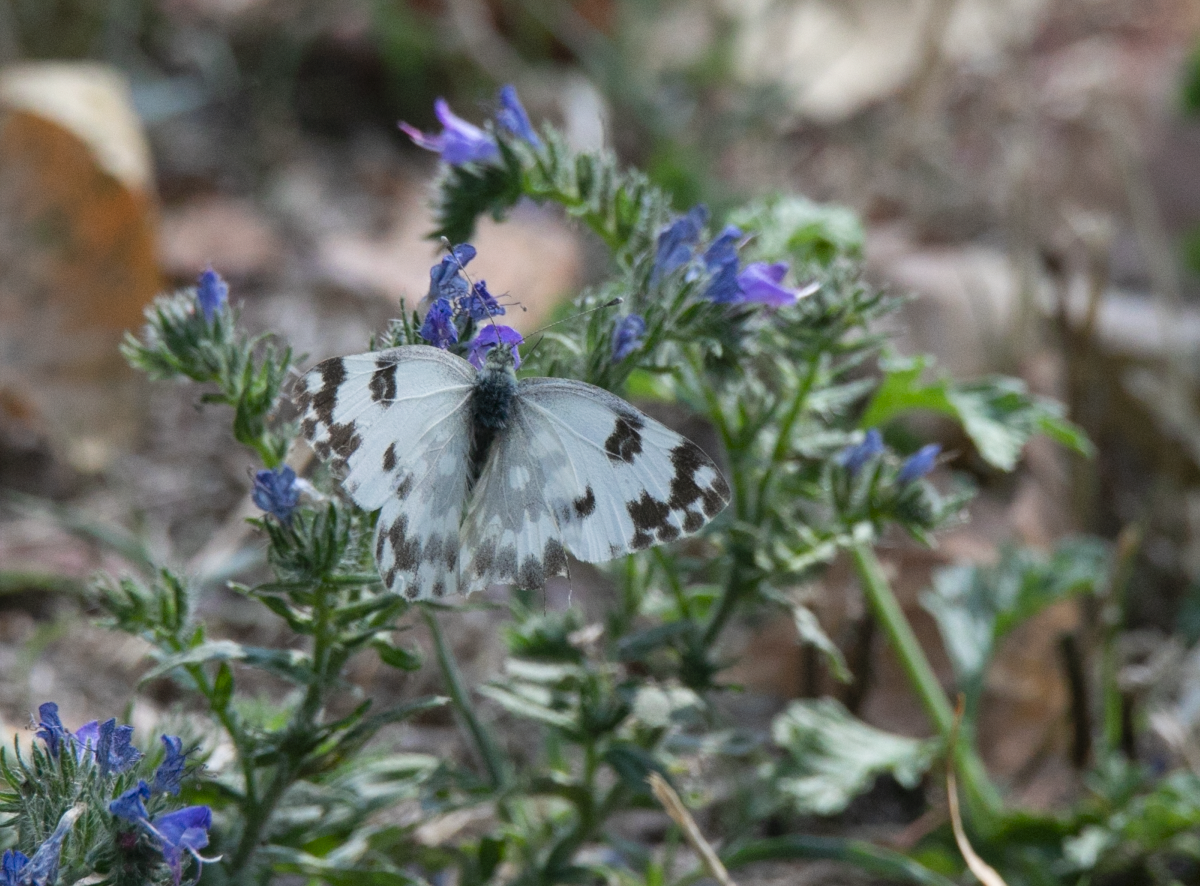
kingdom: Animalia
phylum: Arthropoda
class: Insecta
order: Lepidoptera
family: Pieridae
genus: Pontia
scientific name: Pontia edusa
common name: Eastern bath white
